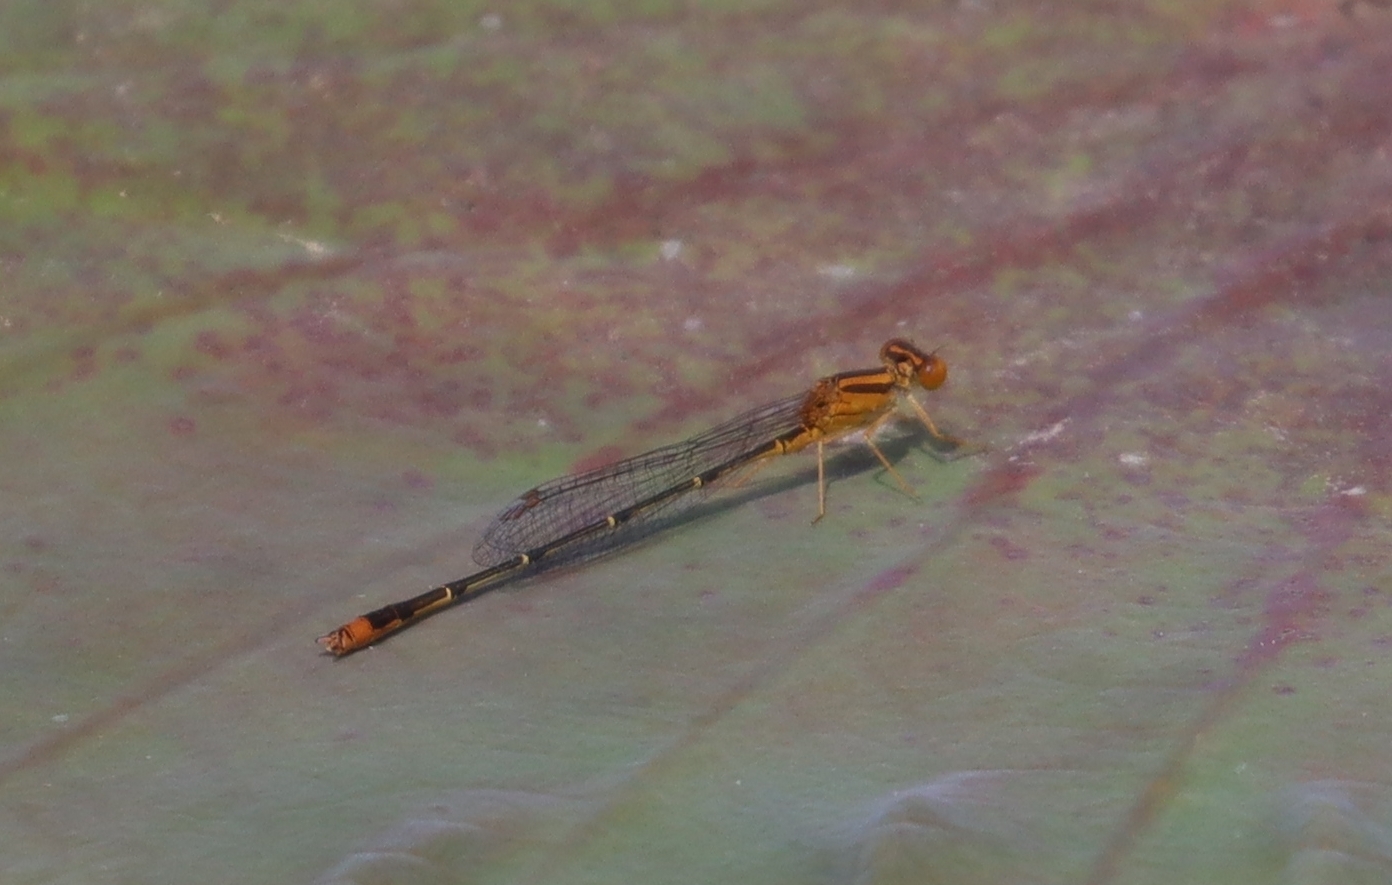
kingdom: Animalia
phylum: Arthropoda
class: Insecta
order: Odonata
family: Coenagrionidae
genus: Enallagma
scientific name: Enallagma signatum
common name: Orange bluet
